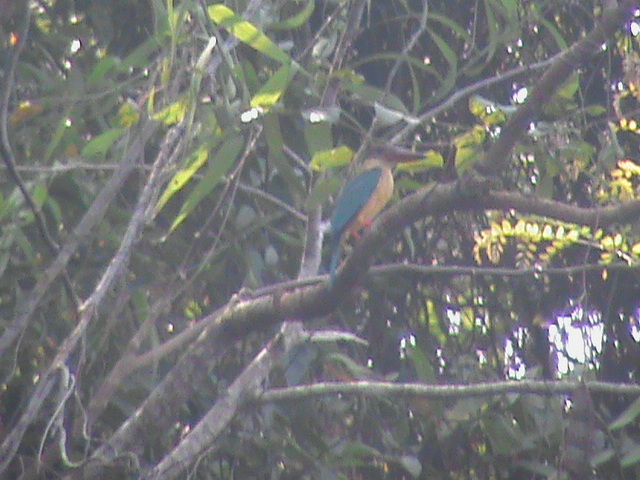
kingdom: Animalia
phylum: Chordata
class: Aves
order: Coraciiformes
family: Alcedinidae
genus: Pelargopsis
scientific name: Pelargopsis capensis
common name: Stork-billed kingfisher
